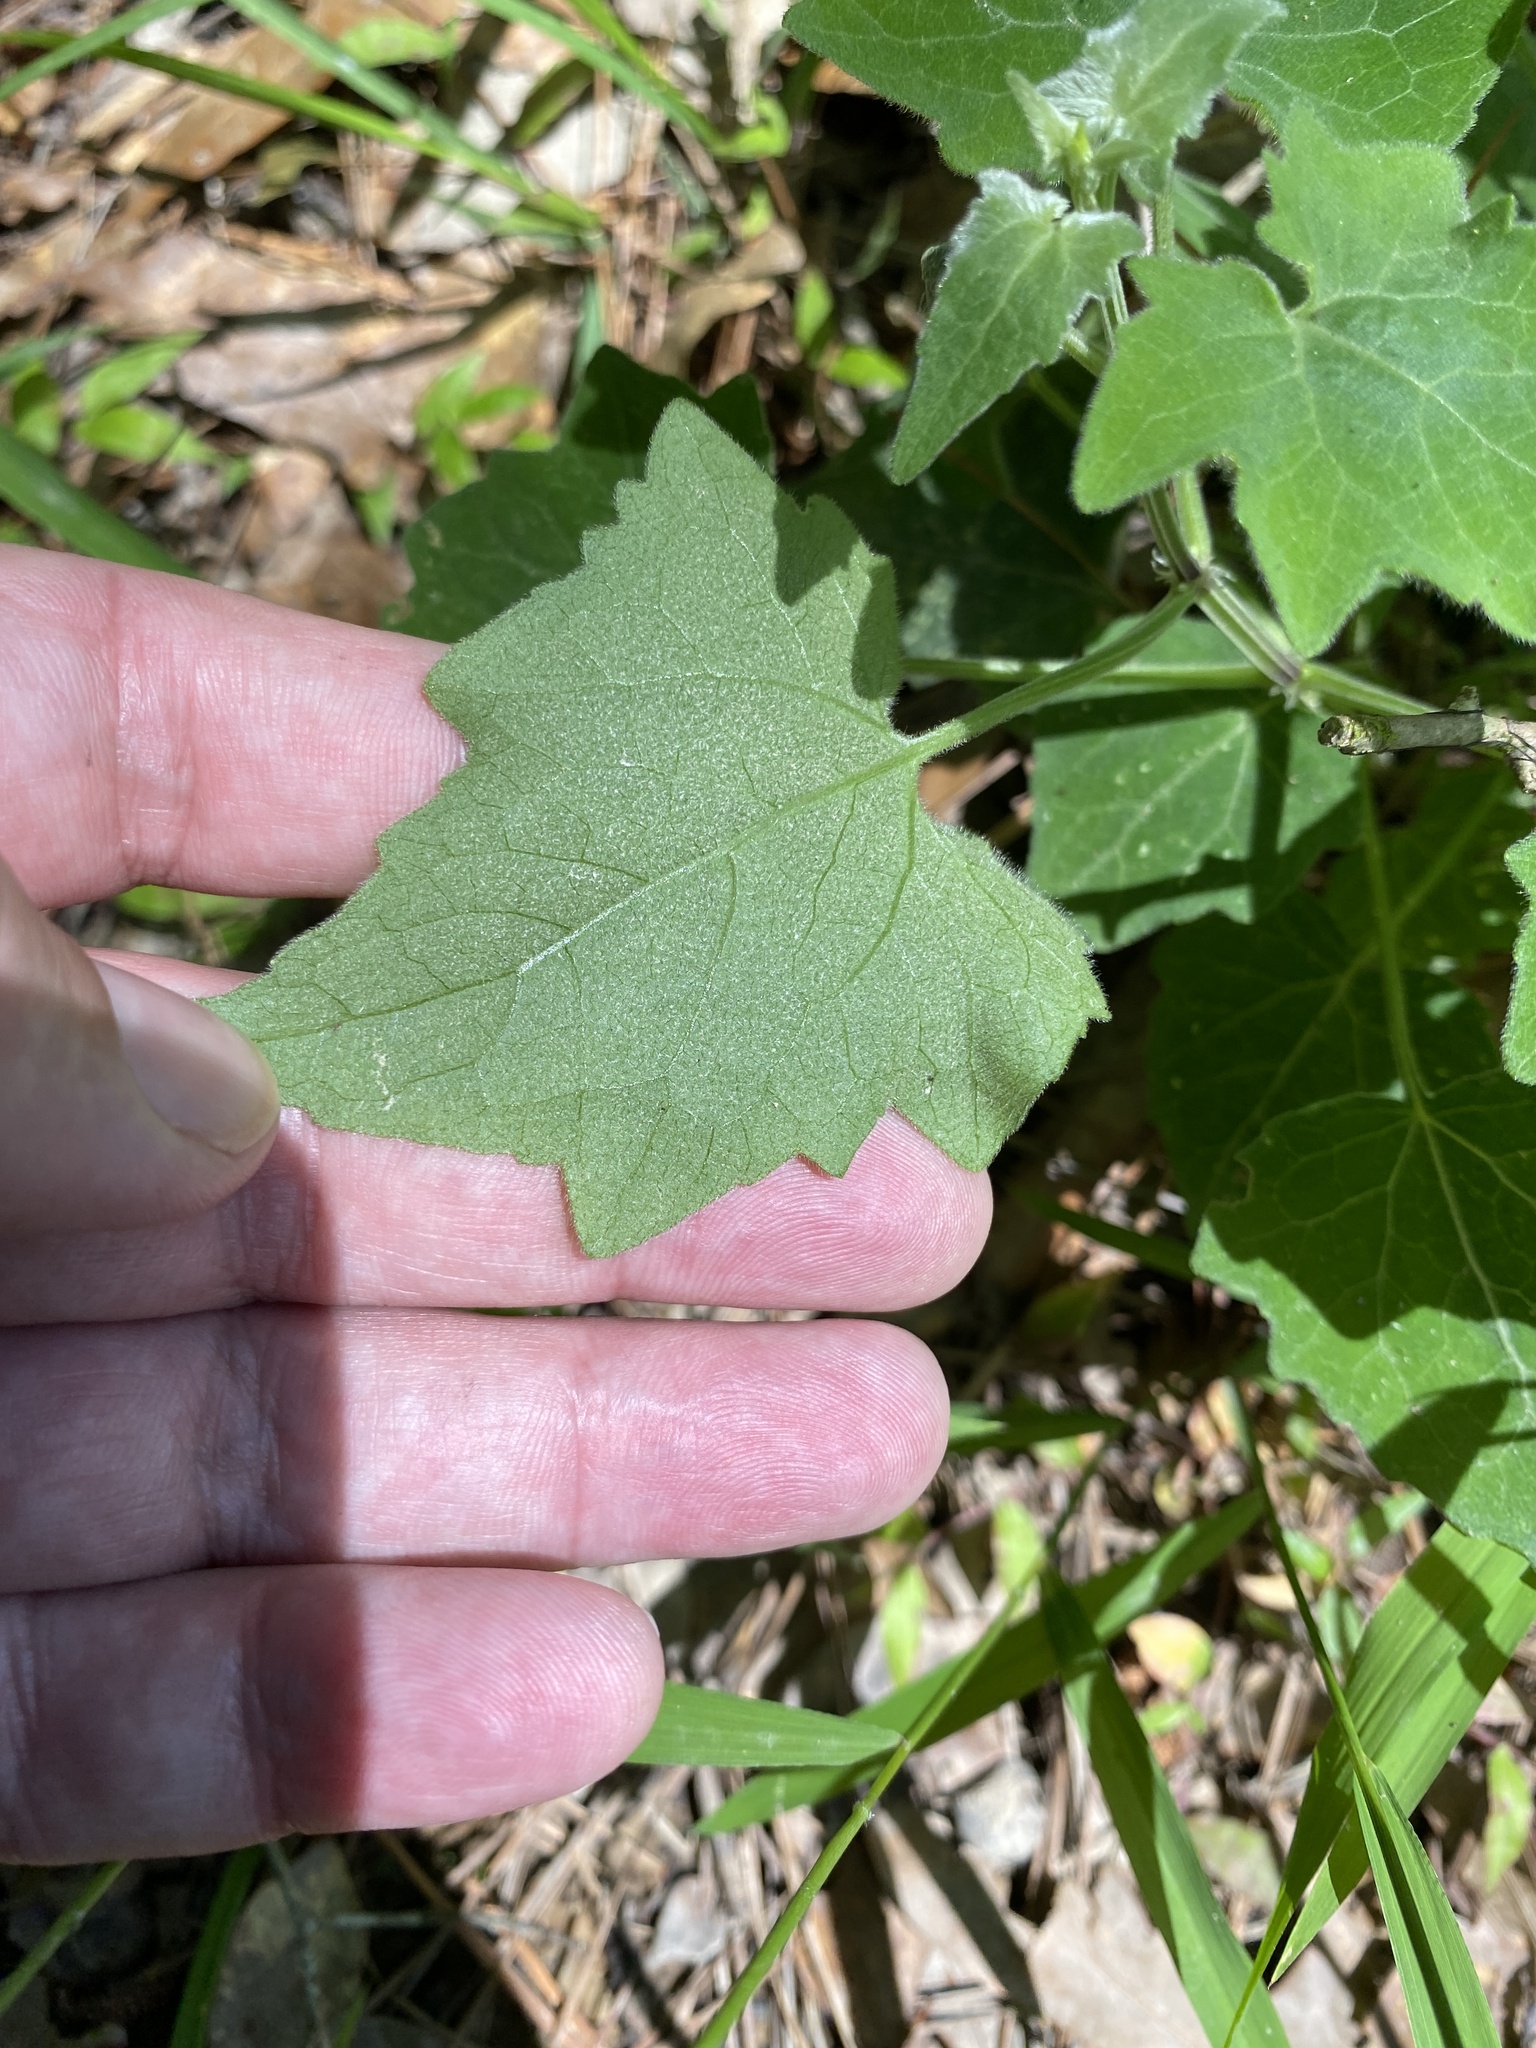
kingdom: Plantae
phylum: Tracheophyta
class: Magnoliopsida
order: Asterales
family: Asteraceae
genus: Mikania
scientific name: Mikania cordifolia
